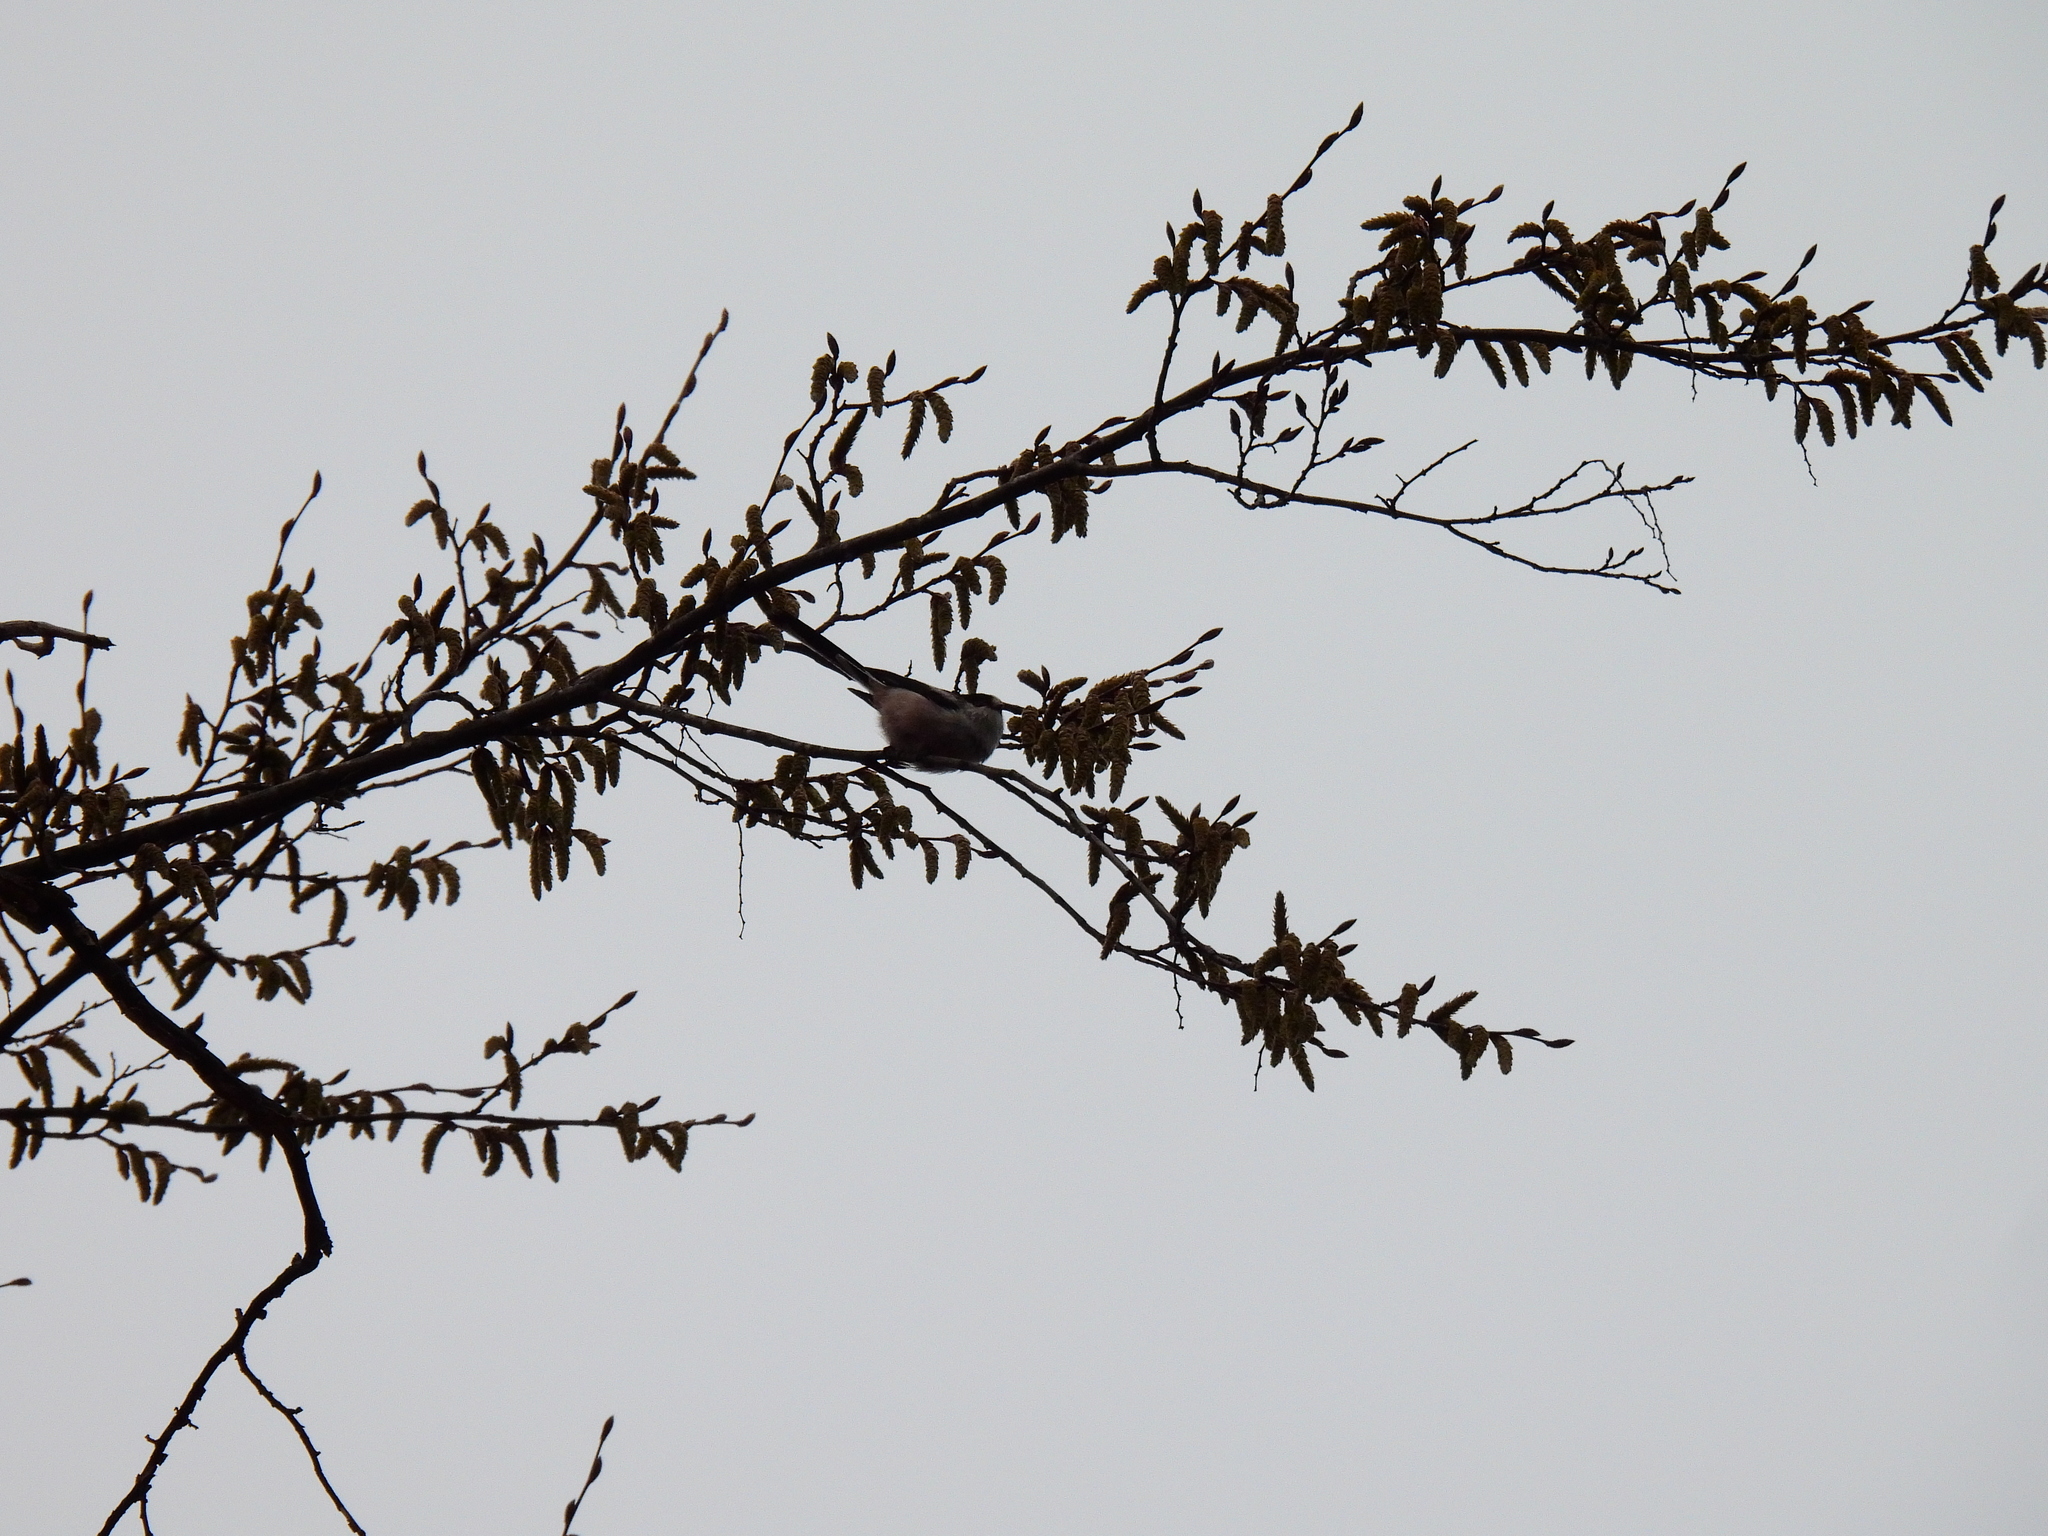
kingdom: Animalia
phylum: Chordata
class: Aves
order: Passeriformes
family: Aegithalidae
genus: Aegithalos
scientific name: Aegithalos caudatus
